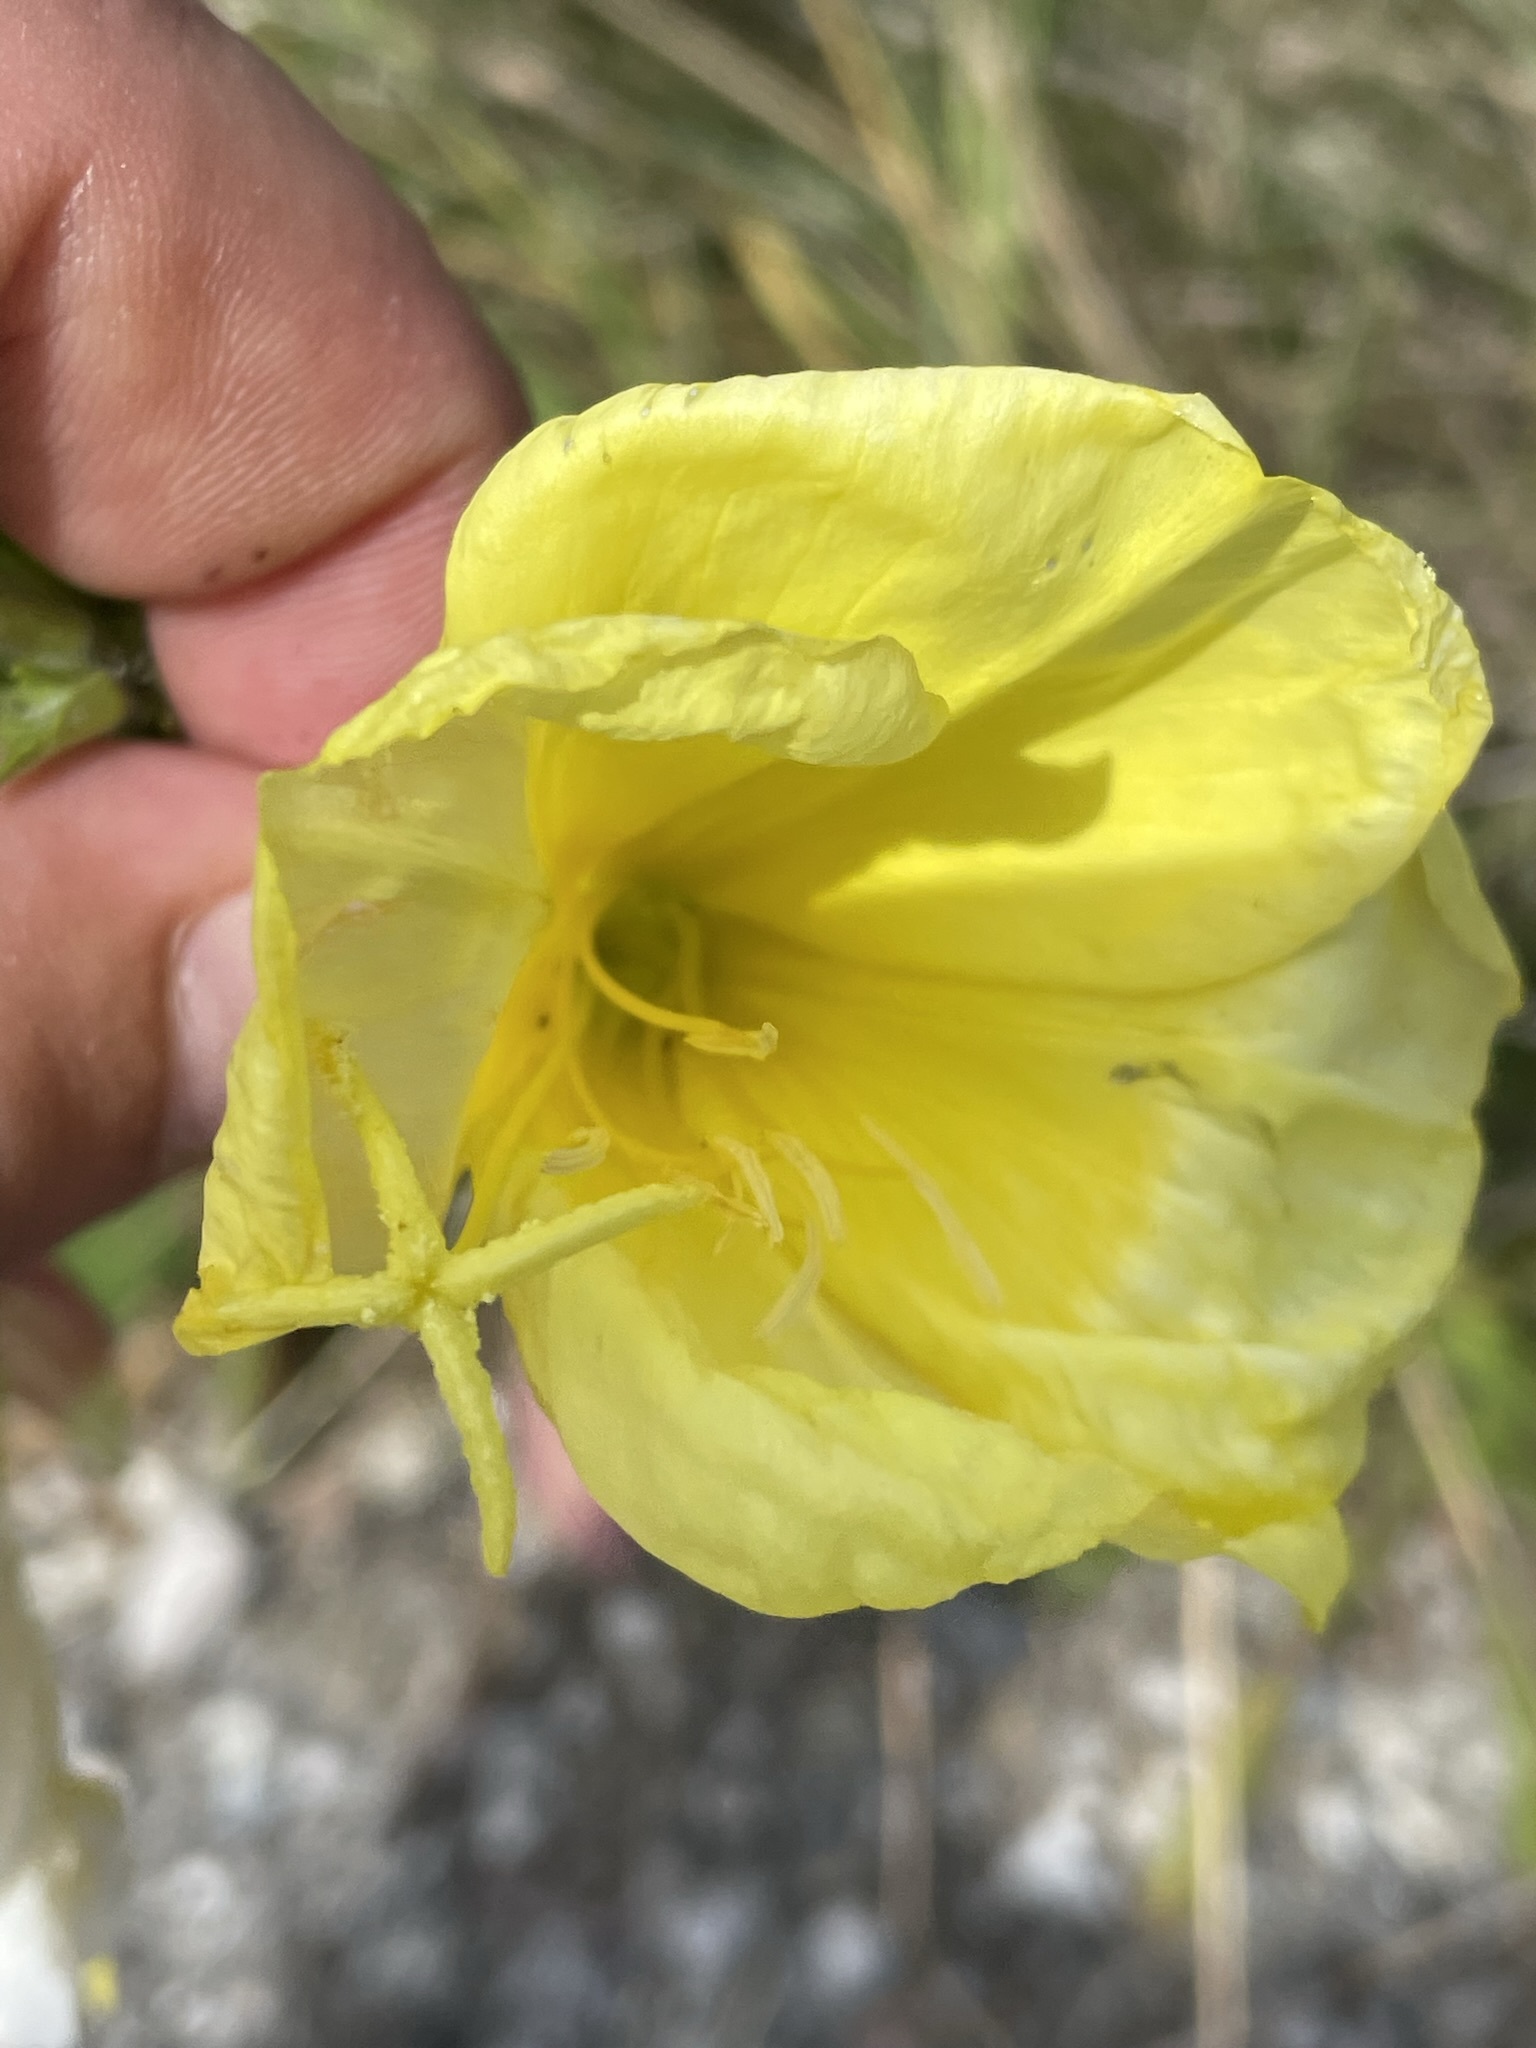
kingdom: Plantae
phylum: Tracheophyta
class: Magnoliopsida
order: Myrtales
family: Onagraceae
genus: Oenothera
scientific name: Oenothera glazioviana
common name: Large-flowered evening-primrose
